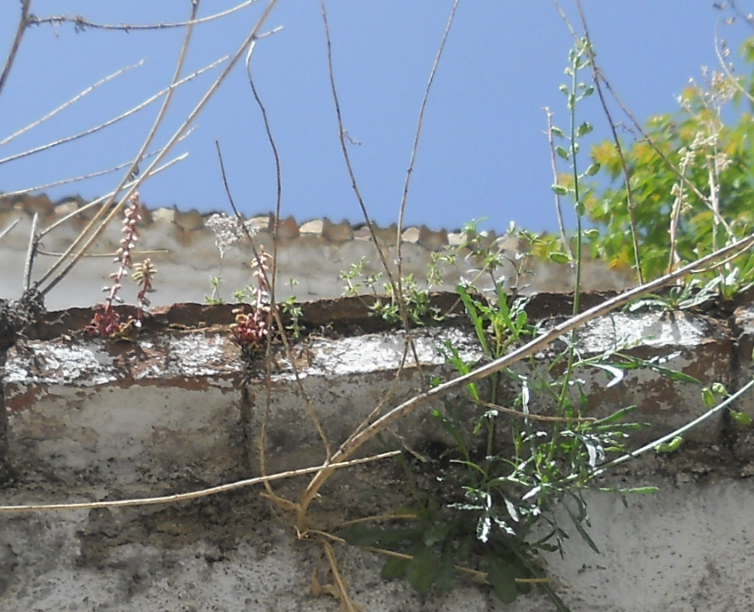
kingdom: Plantae
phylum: Tracheophyta
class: Magnoliopsida
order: Saxifragales
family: Crassulaceae
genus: Umbilicus
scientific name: Umbilicus rupestris
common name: Navelwort
